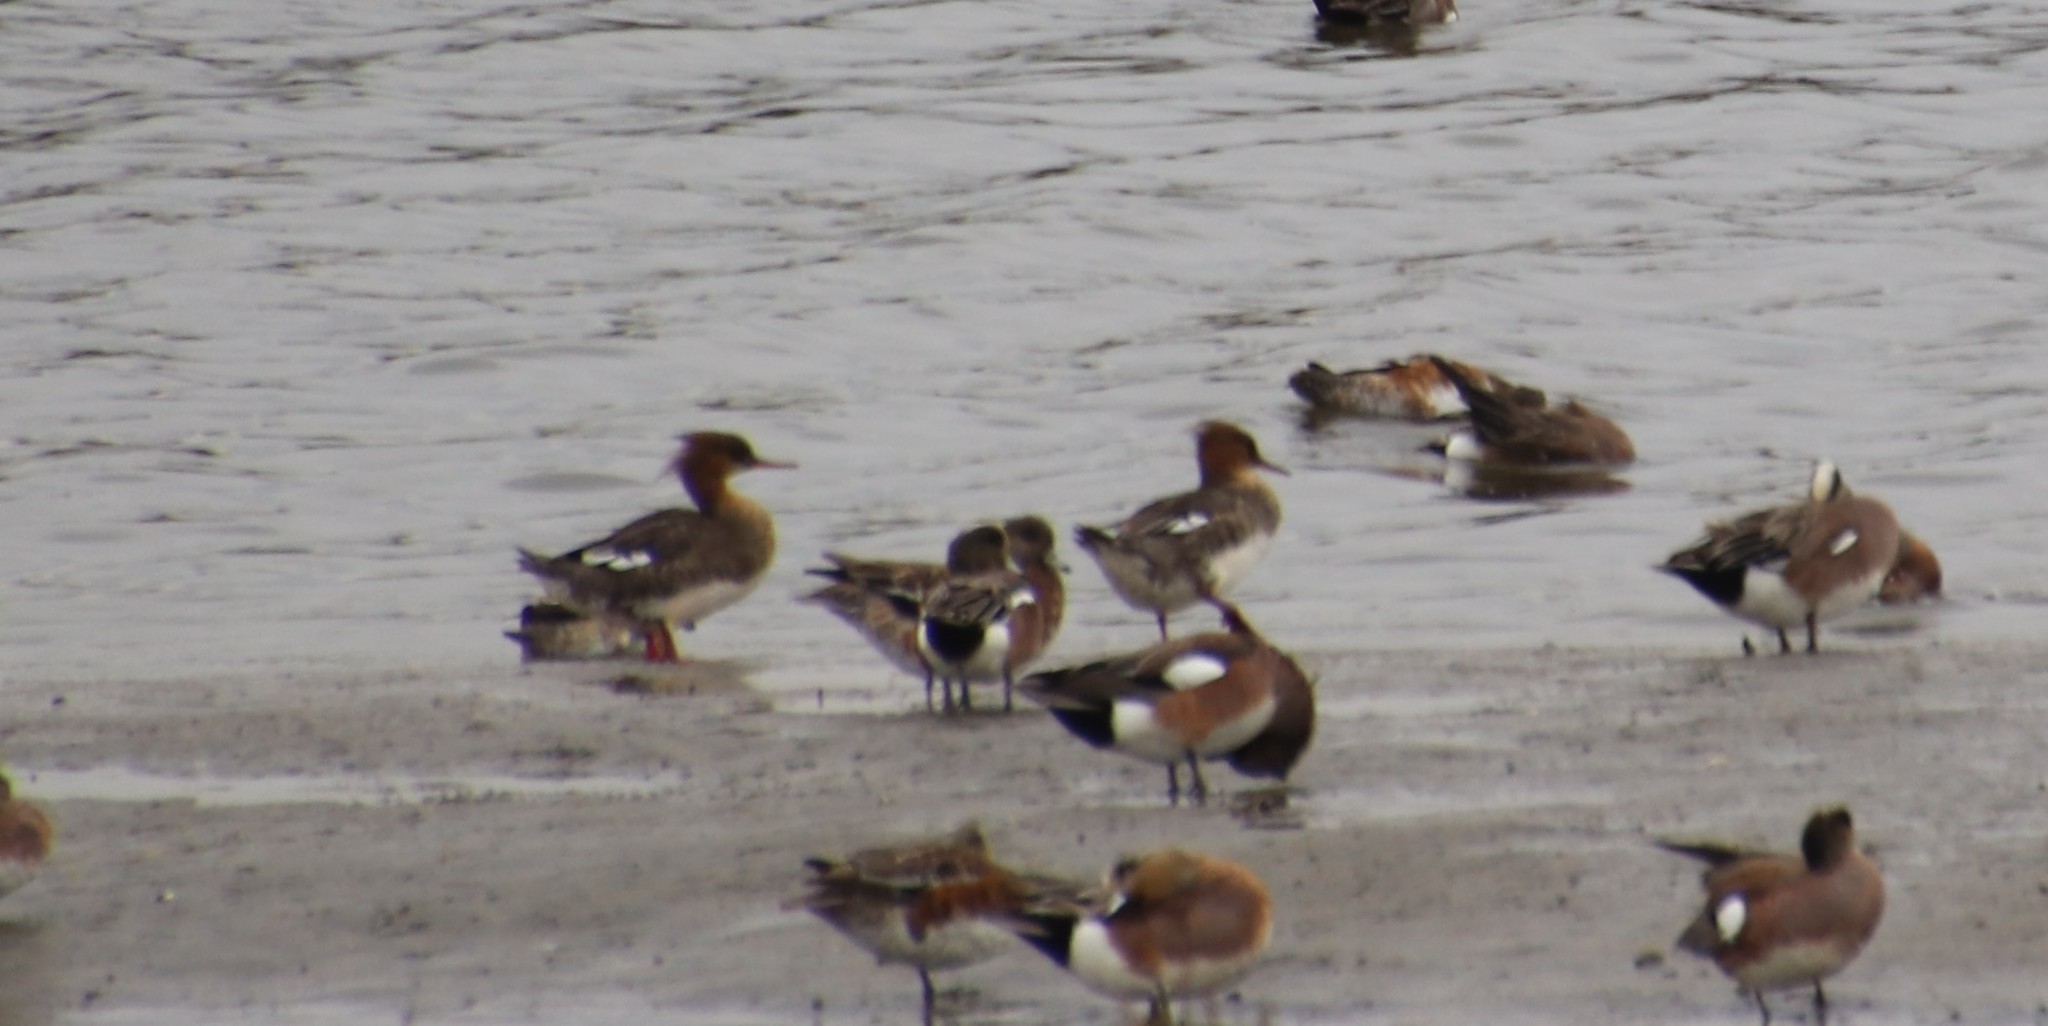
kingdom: Animalia
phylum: Chordata
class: Aves
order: Anseriformes
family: Anatidae
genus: Mergus
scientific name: Mergus serrator
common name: Red-breasted merganser
